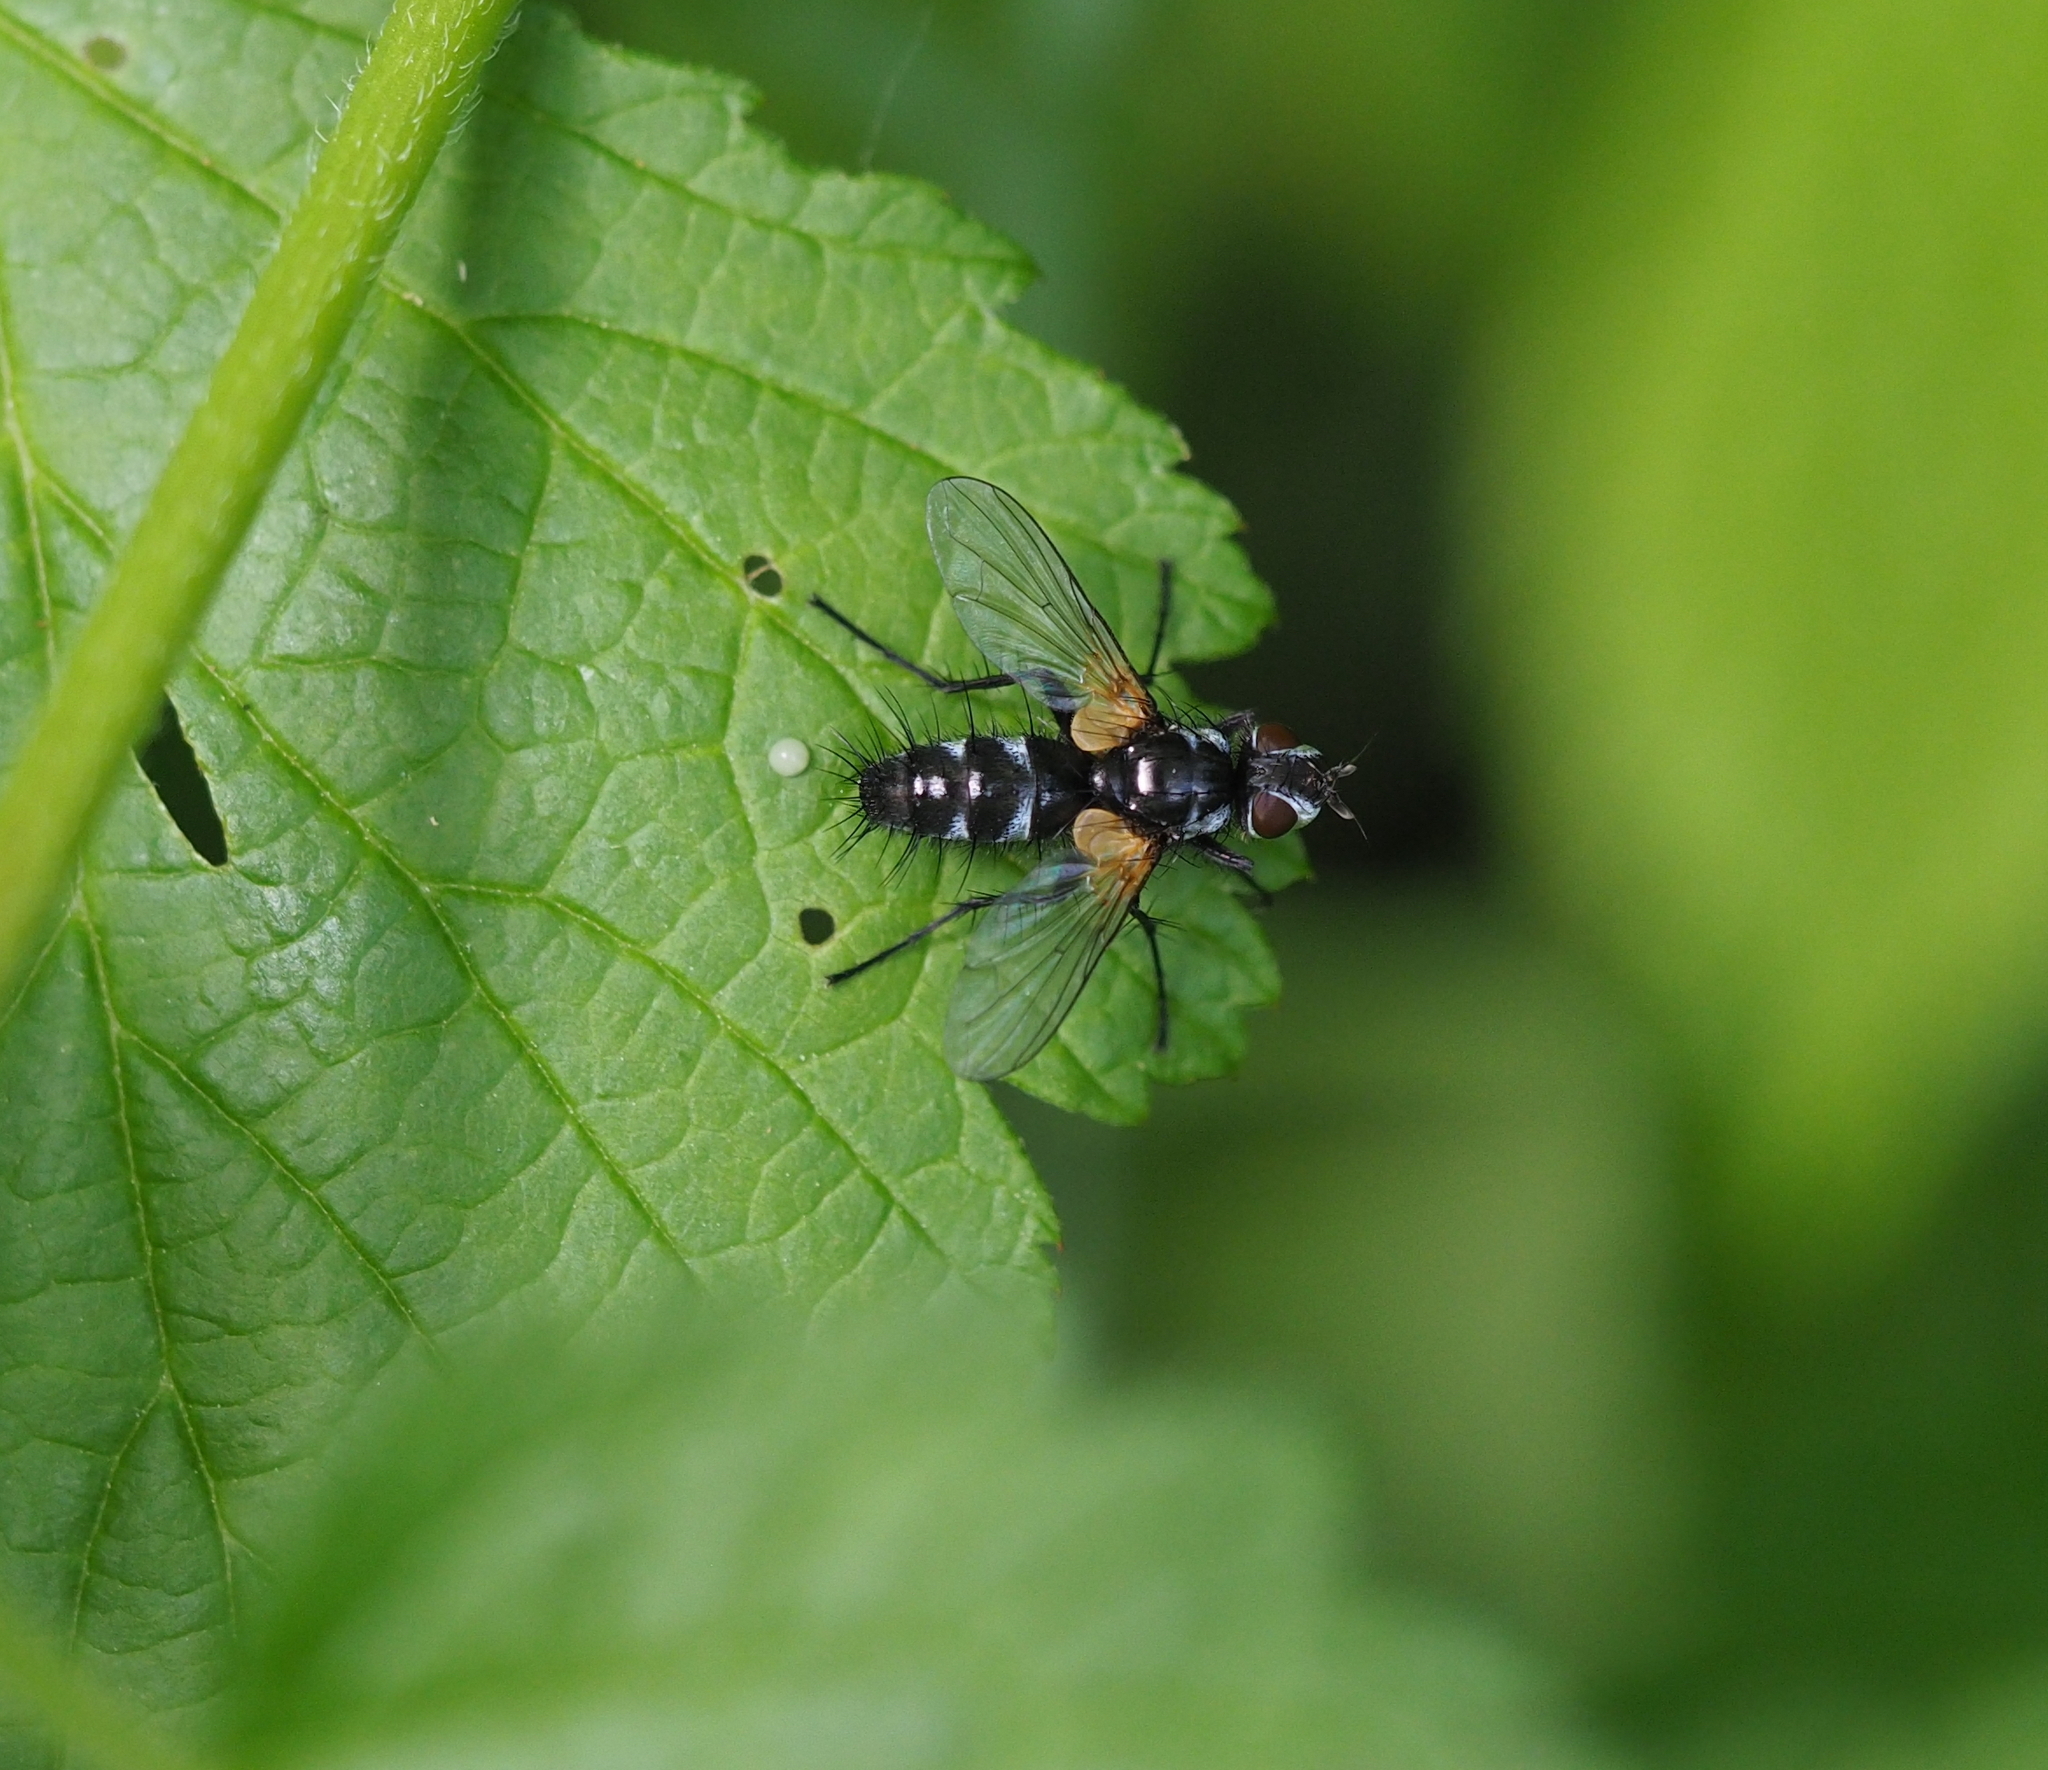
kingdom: Animalia
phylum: Arthropoda
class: Insecta
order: Diptera
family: Tachinidae
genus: Phyllomya
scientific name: Phyllomya volvulus
